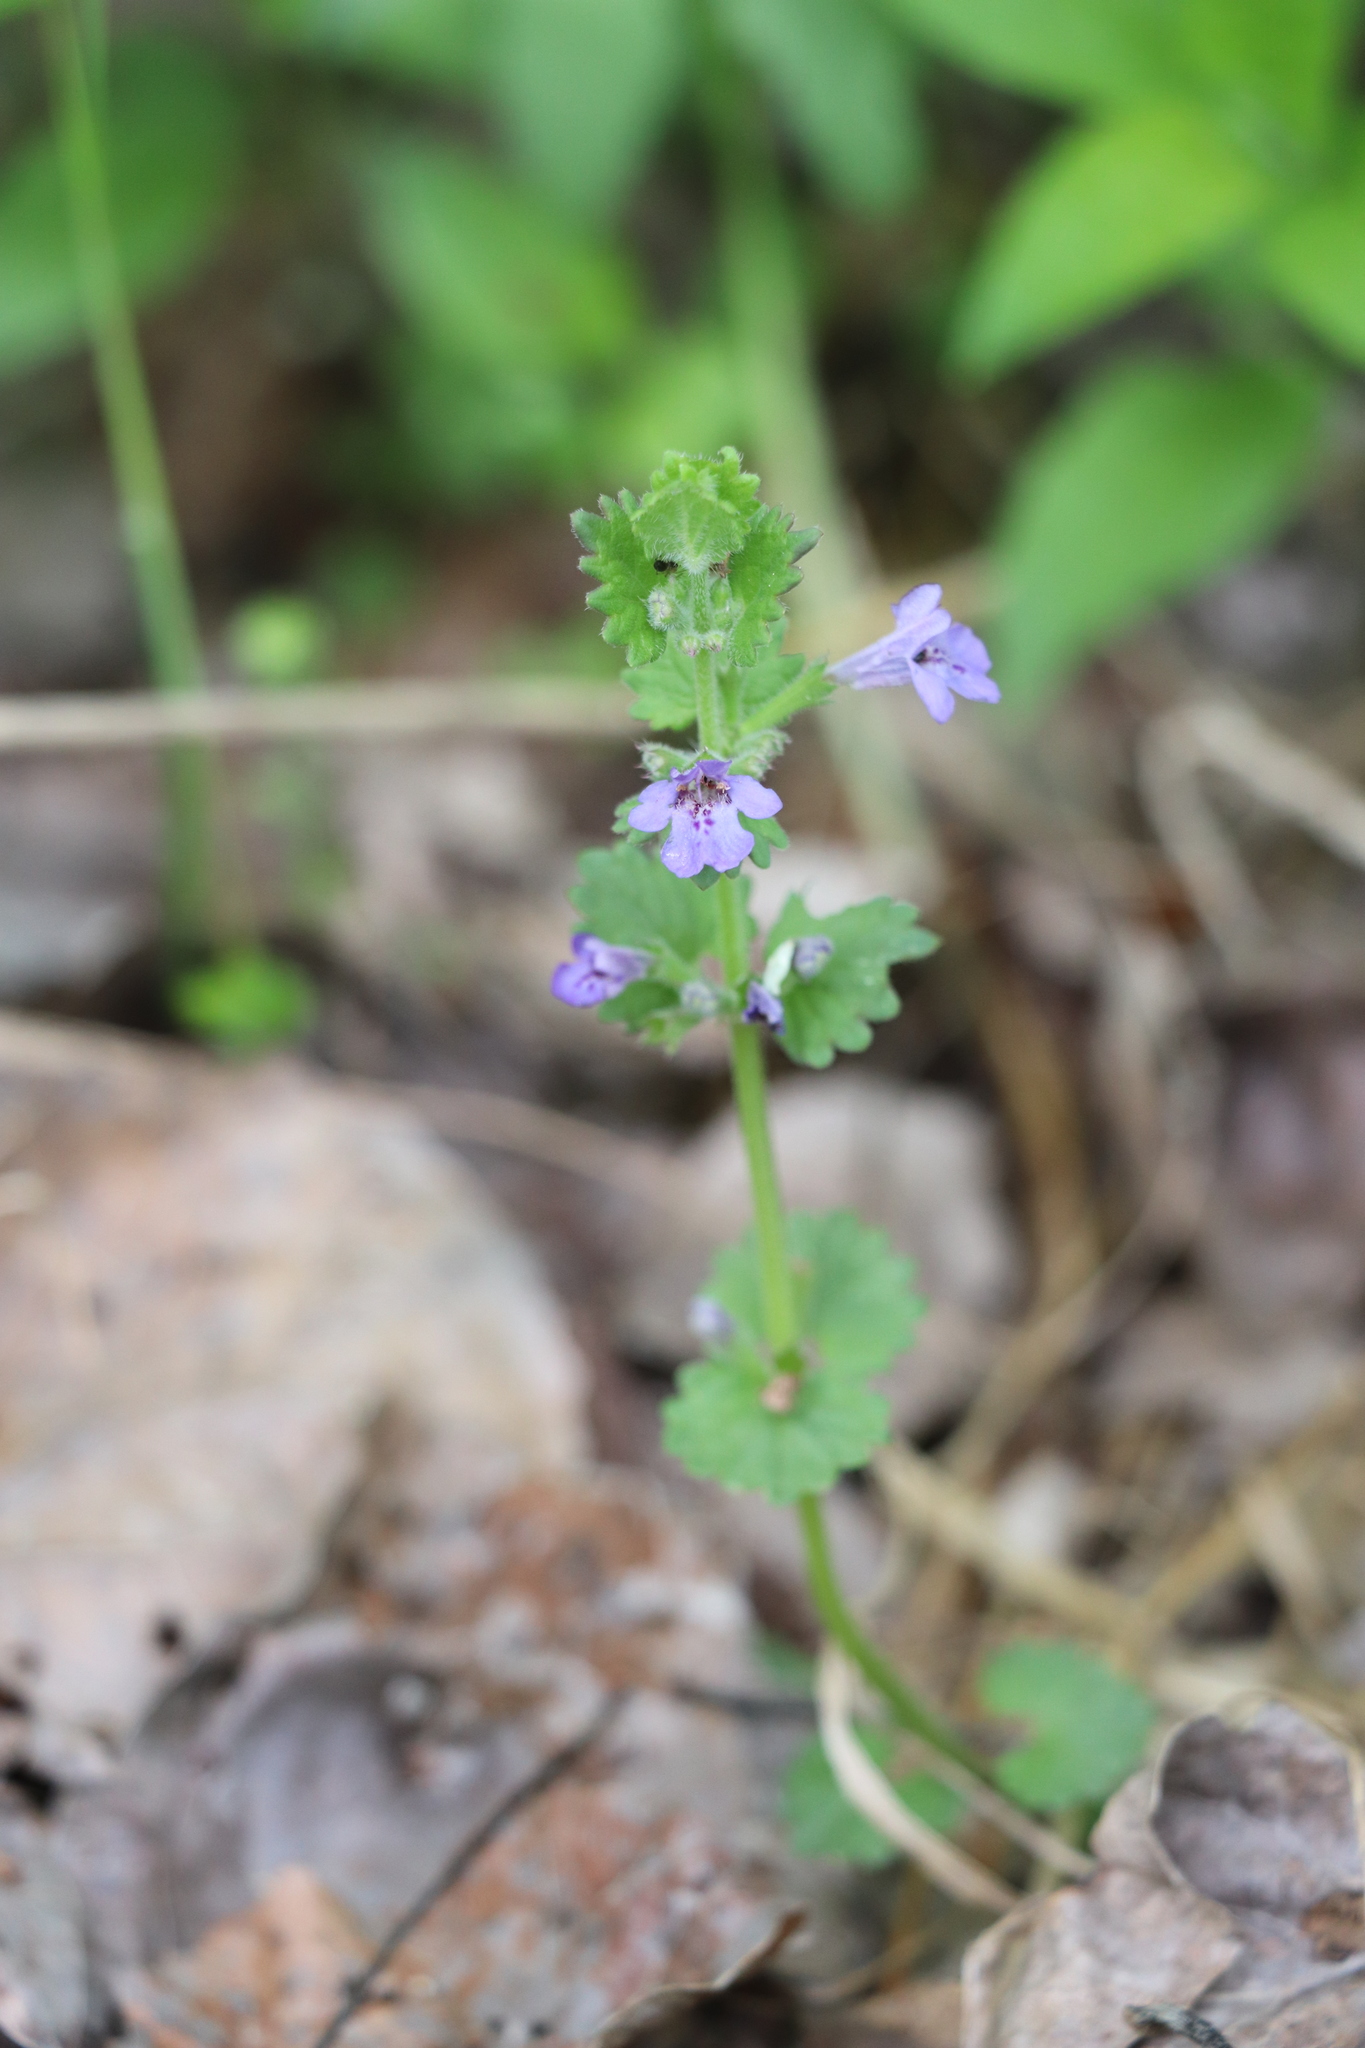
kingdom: Plantae
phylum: Tracheophyta
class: Magnoliopsida
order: Lamiales
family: Lamiaceae
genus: Glechoma
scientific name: Glechoma hederacea
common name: Ground ivy
